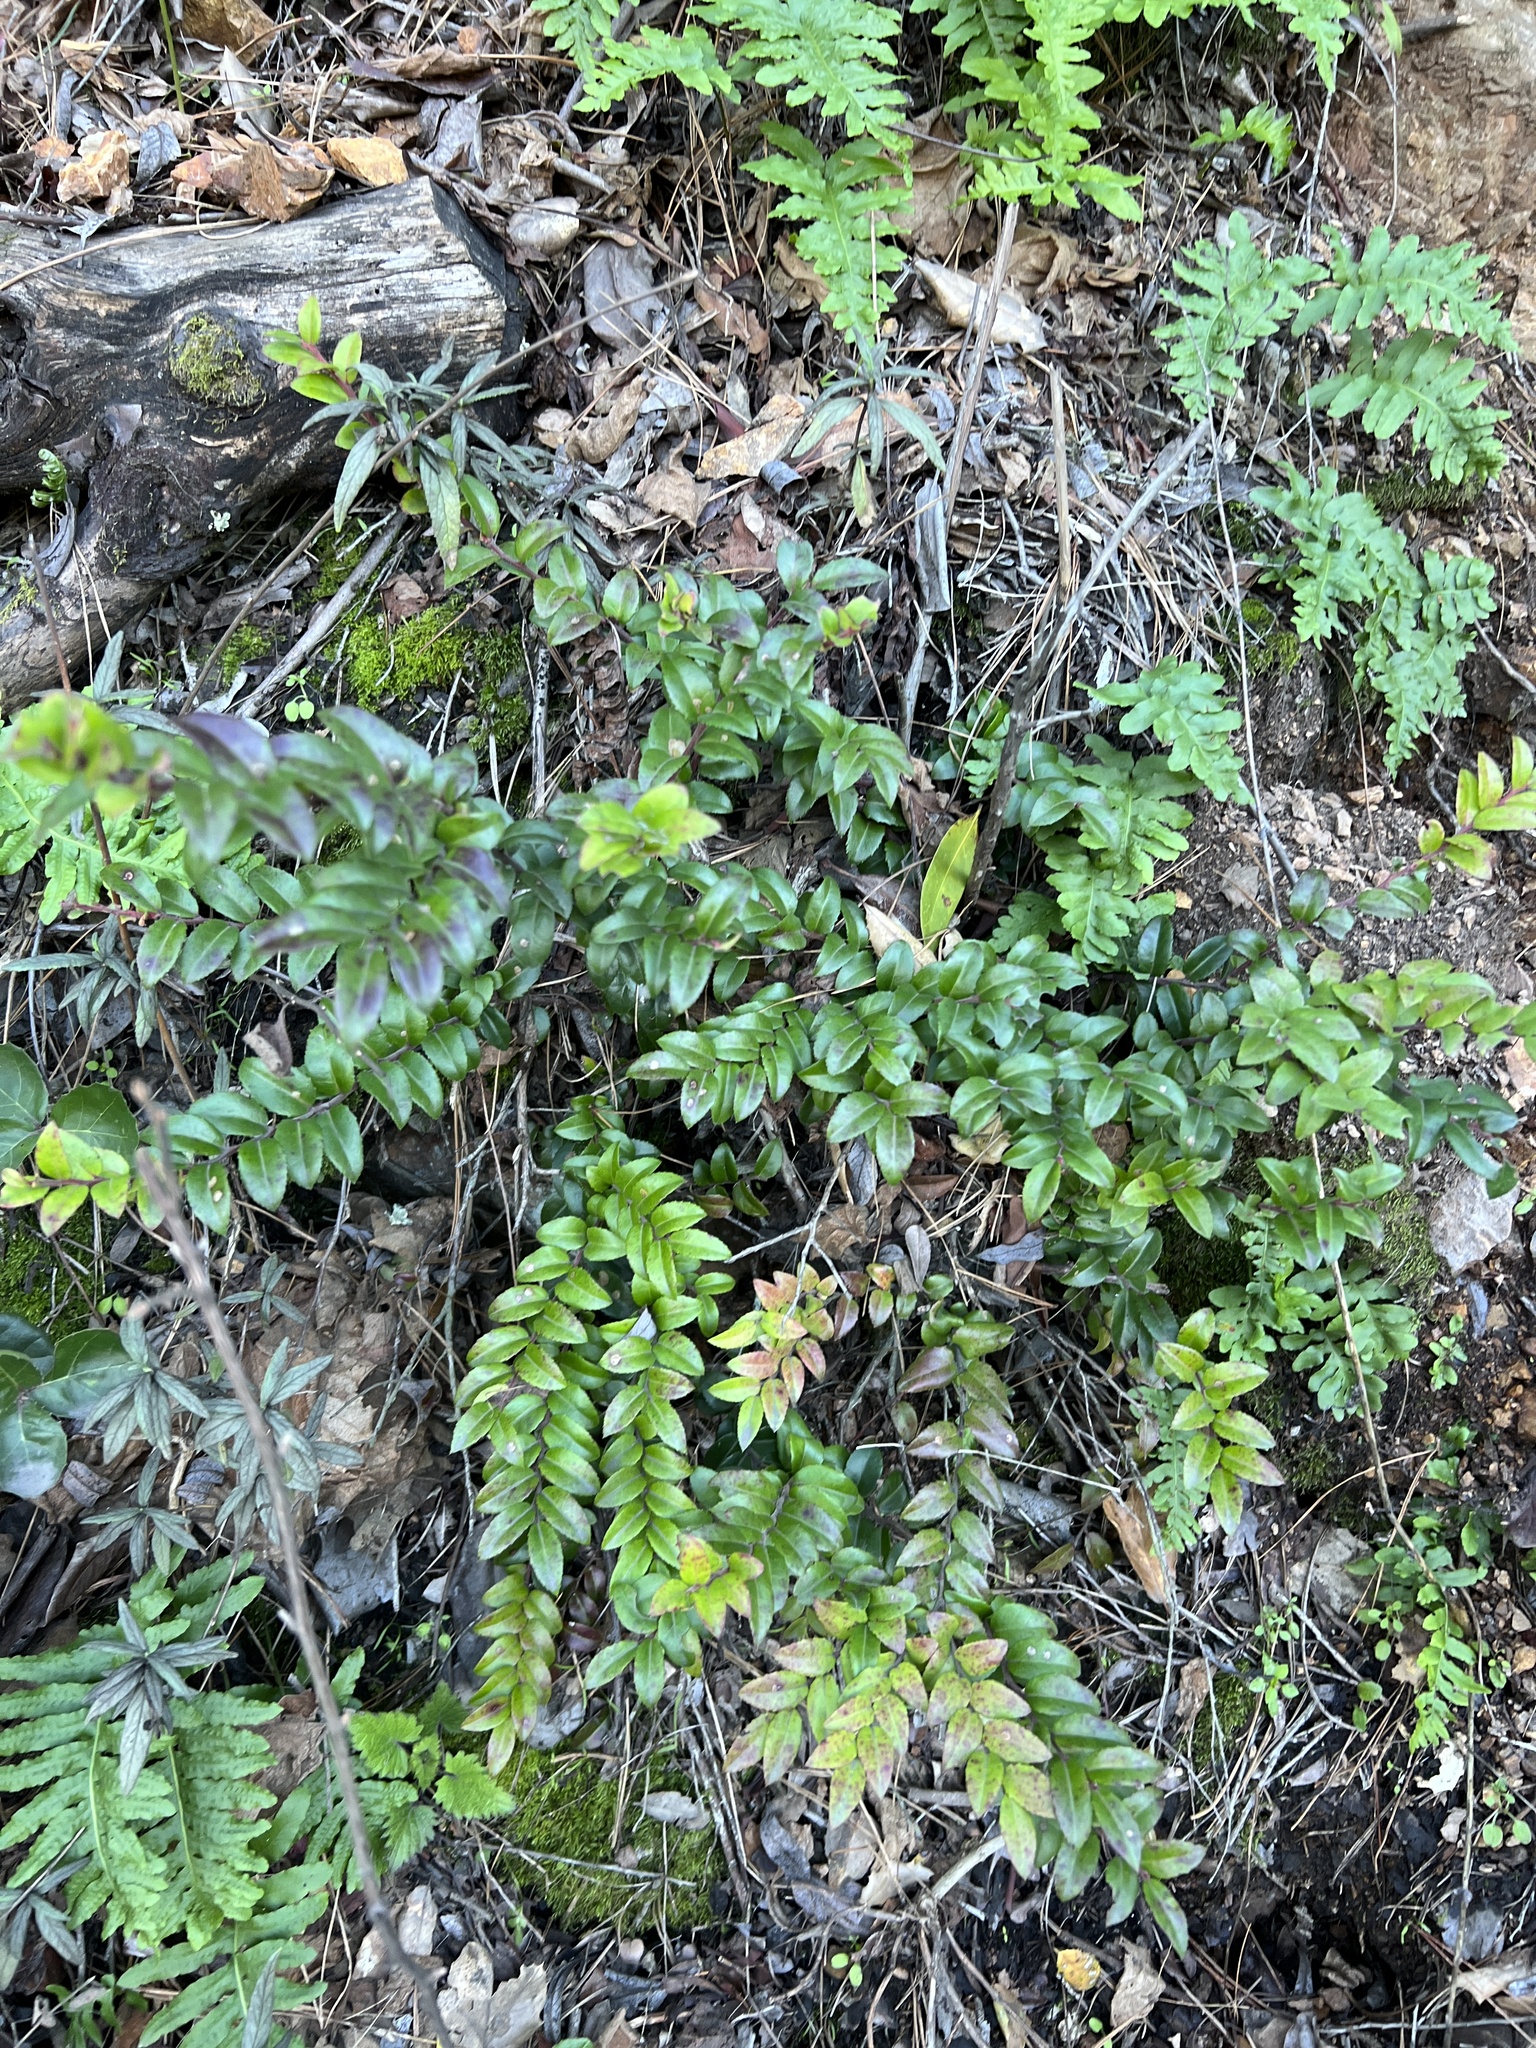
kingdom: Plantae
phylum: Tracheophyta
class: Magnoliopsida
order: Ericales
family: Ericaceae
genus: Vaccinium
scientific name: Vaccinium ovatum
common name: California-huckleberry
